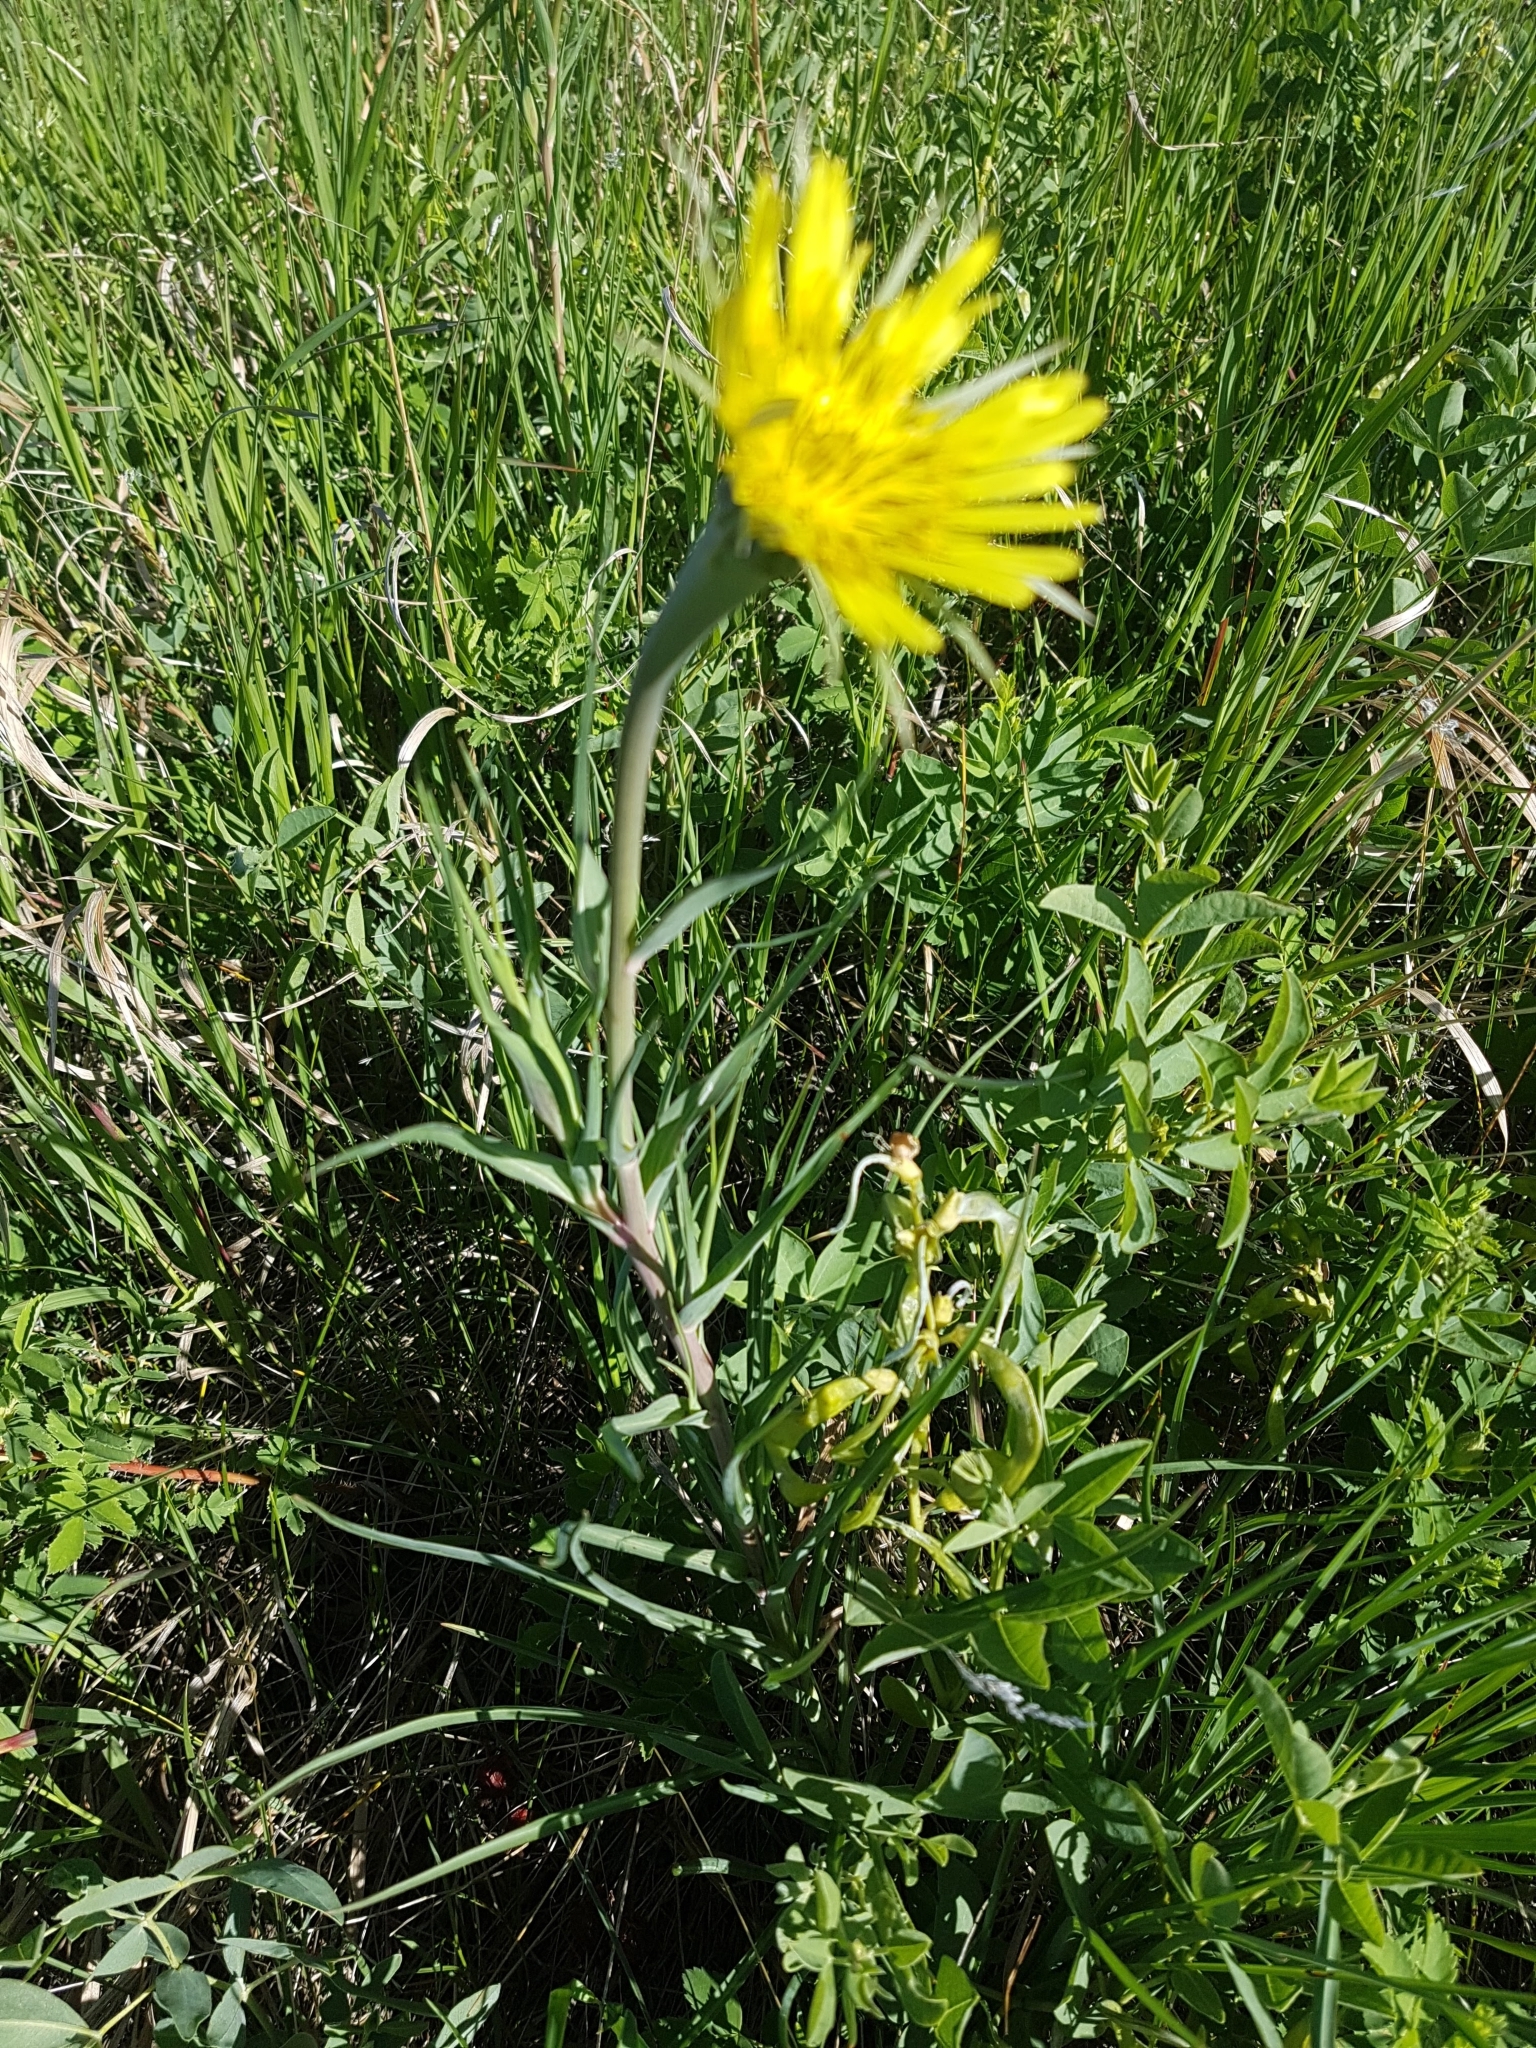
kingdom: Plantae
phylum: Tracheophyta
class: Magnoliopsida
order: Asterales
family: Asteraceae
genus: Tragopogon
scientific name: Tragopogon dubius
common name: Yellow salsify
